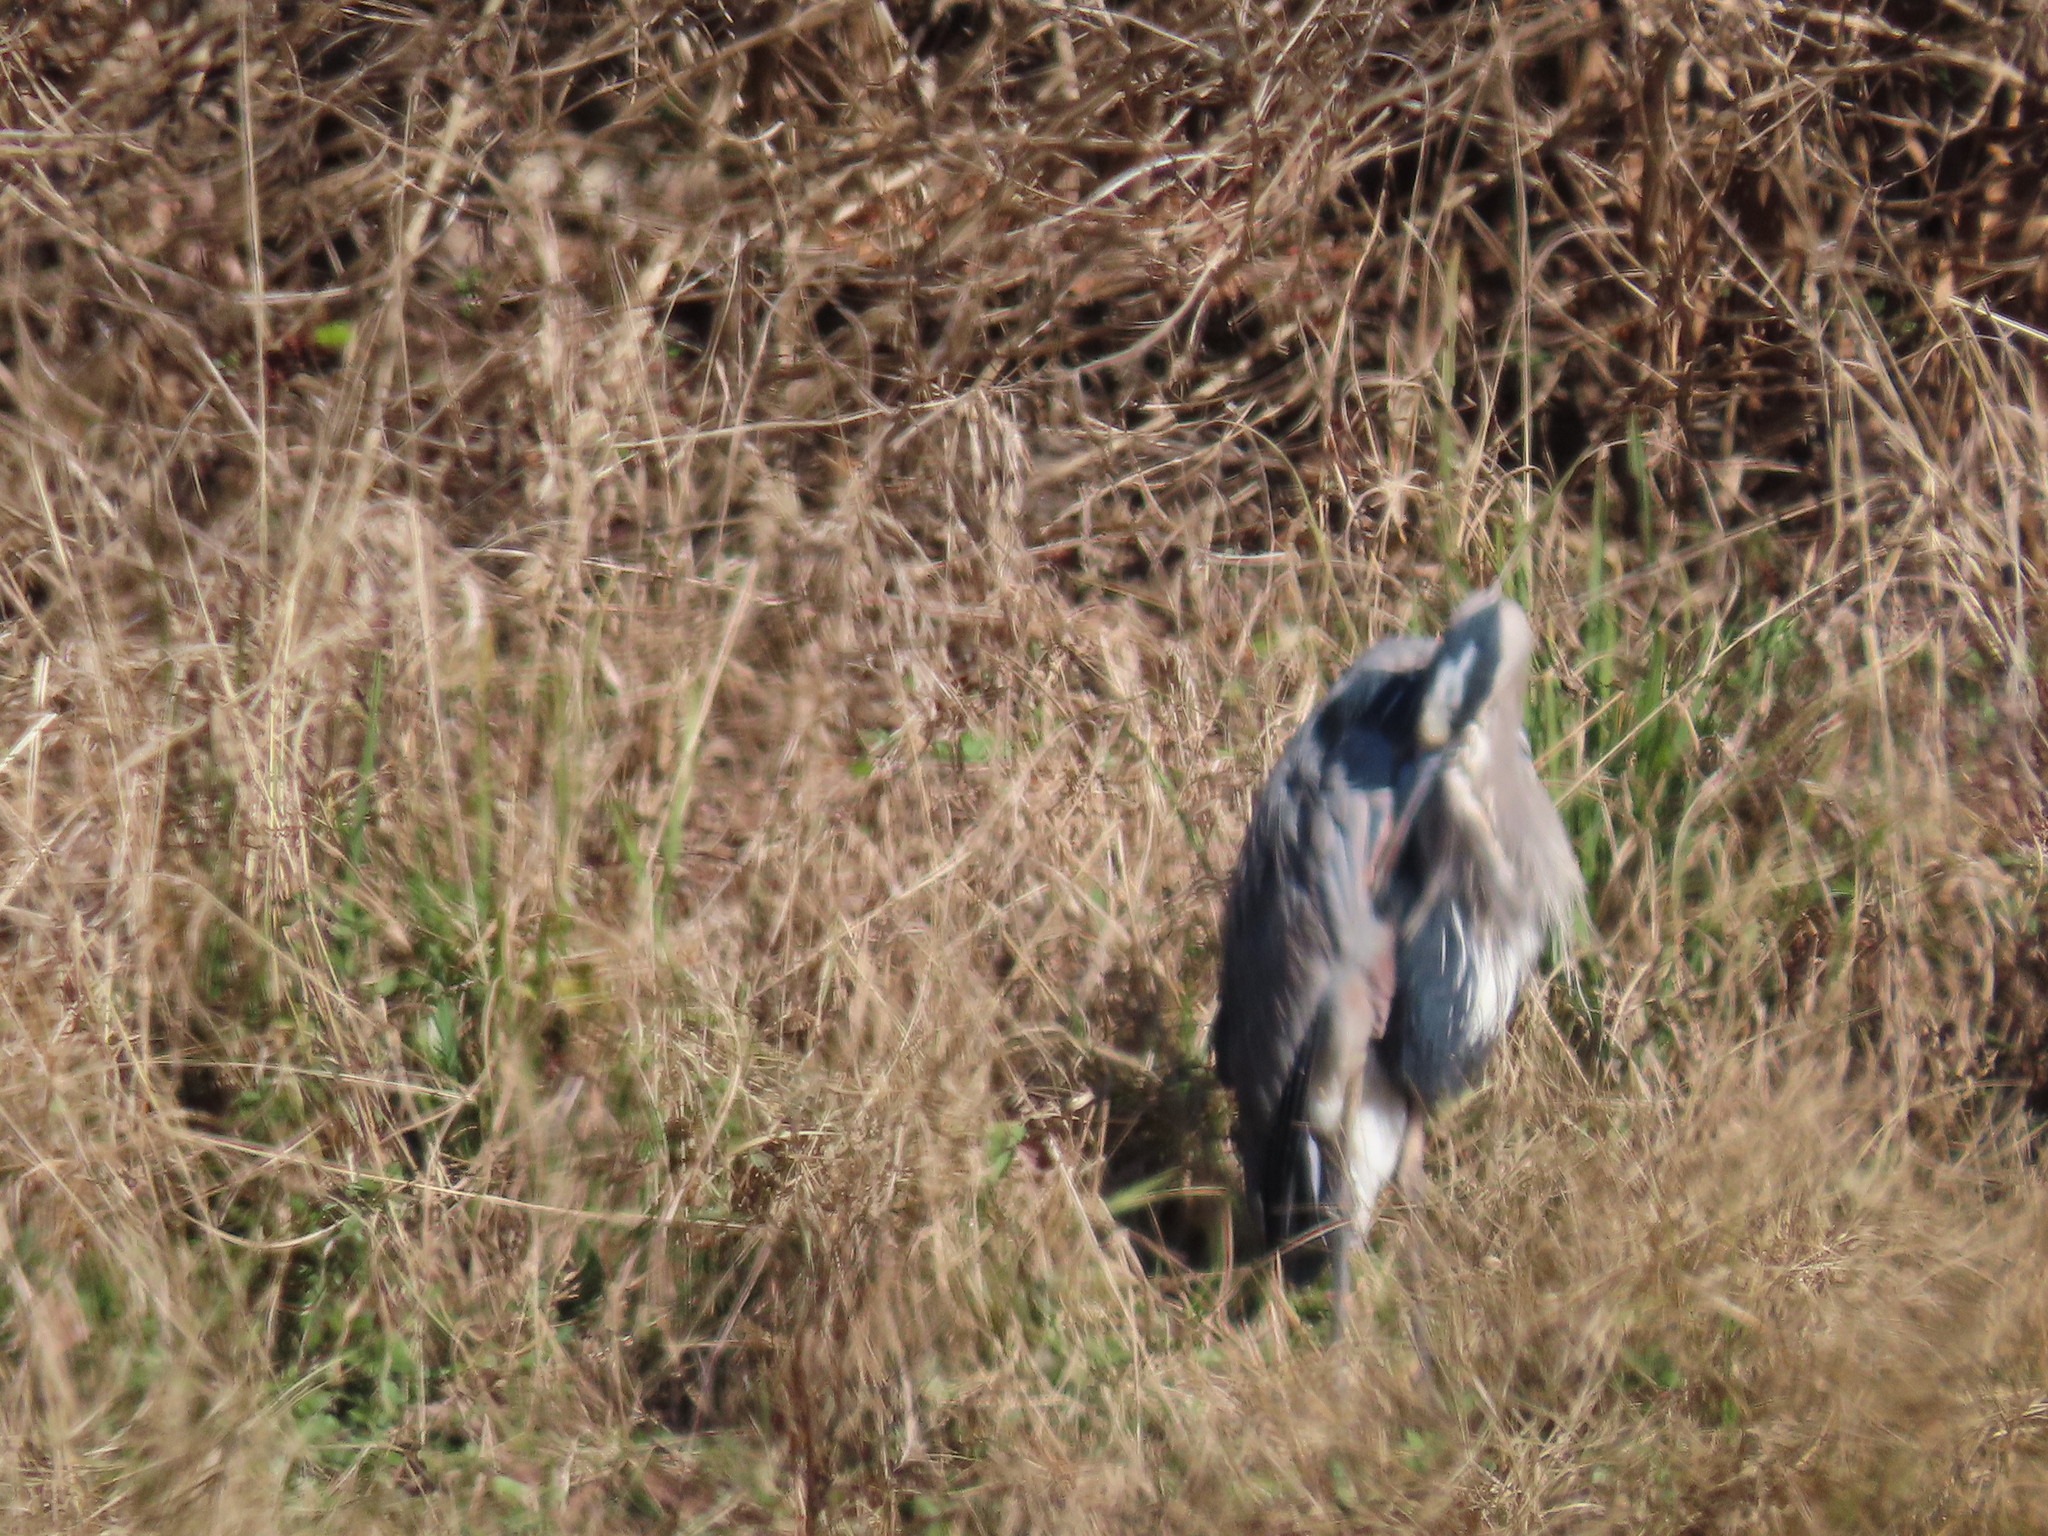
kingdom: Animalia
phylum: Chordata
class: Aves
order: Pelecaniformes
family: Ardeidae
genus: Ardea
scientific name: Ardea herodias
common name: Great blue heron
